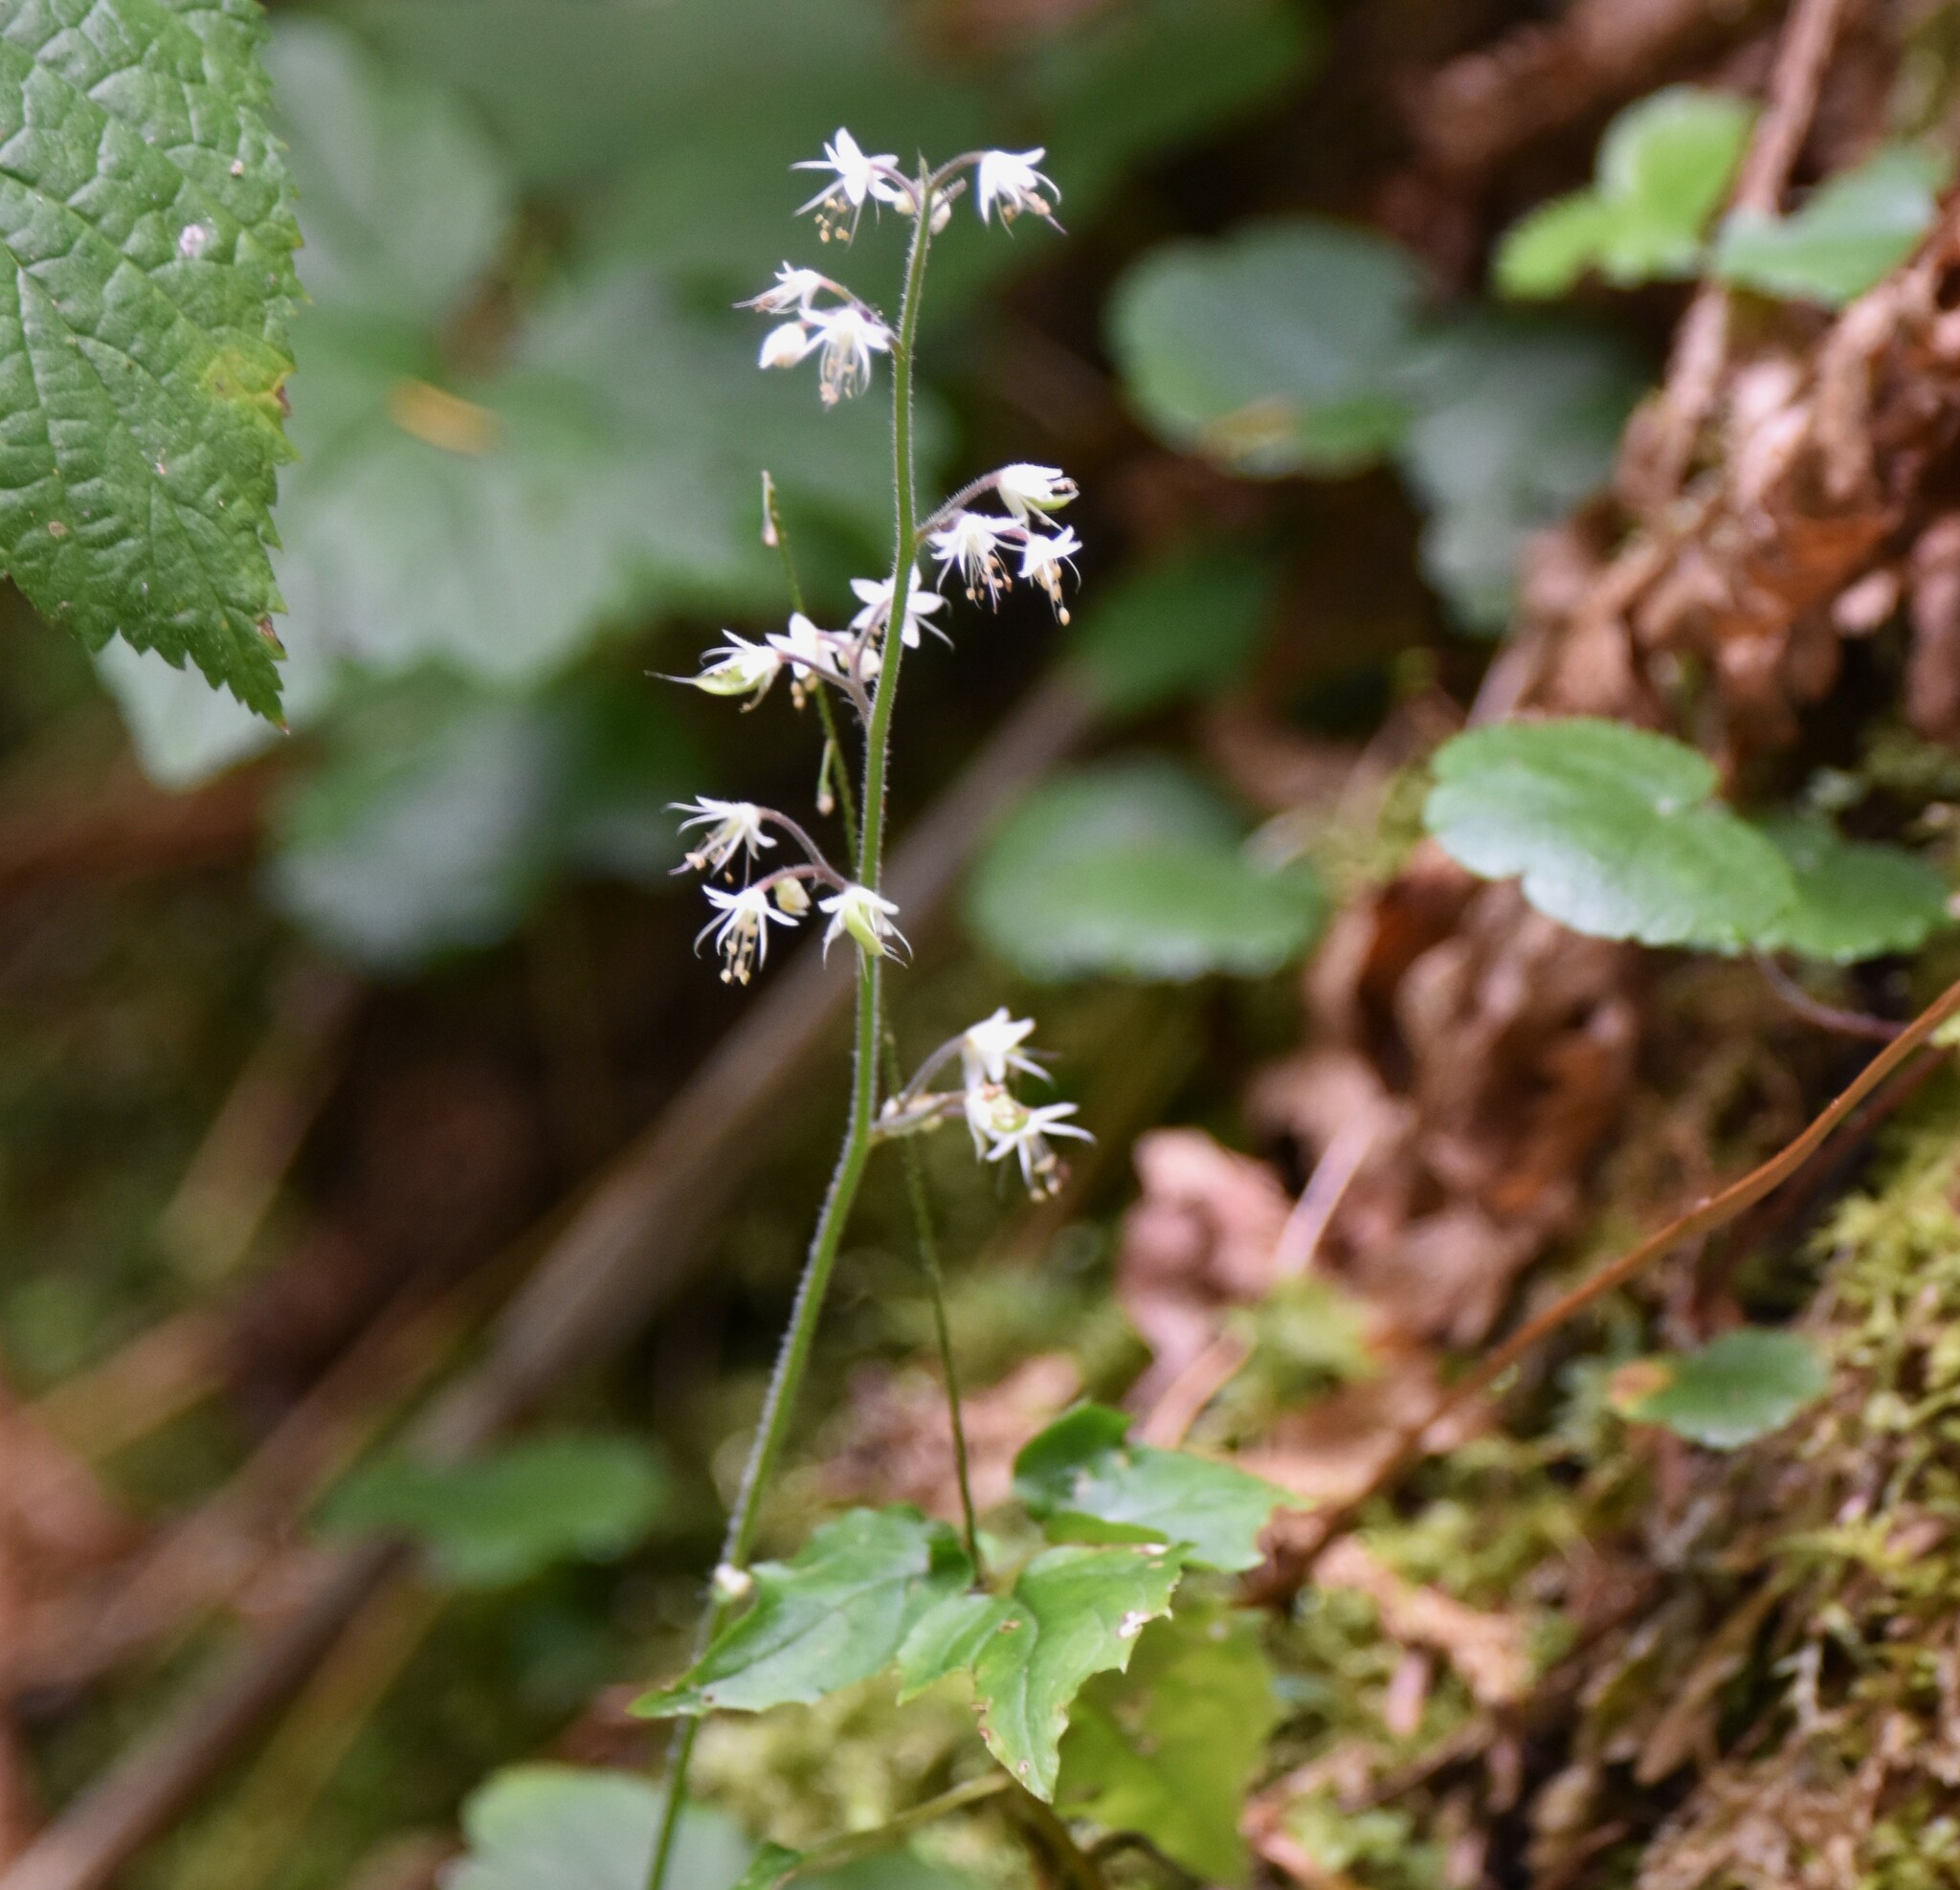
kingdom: Plantae
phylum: Tracheophyta
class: Magnoliopsida
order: Saxifragales
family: Saxifragaceae
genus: Tiarella
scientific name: Tiarella trifoliata
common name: Sugar-scoop
